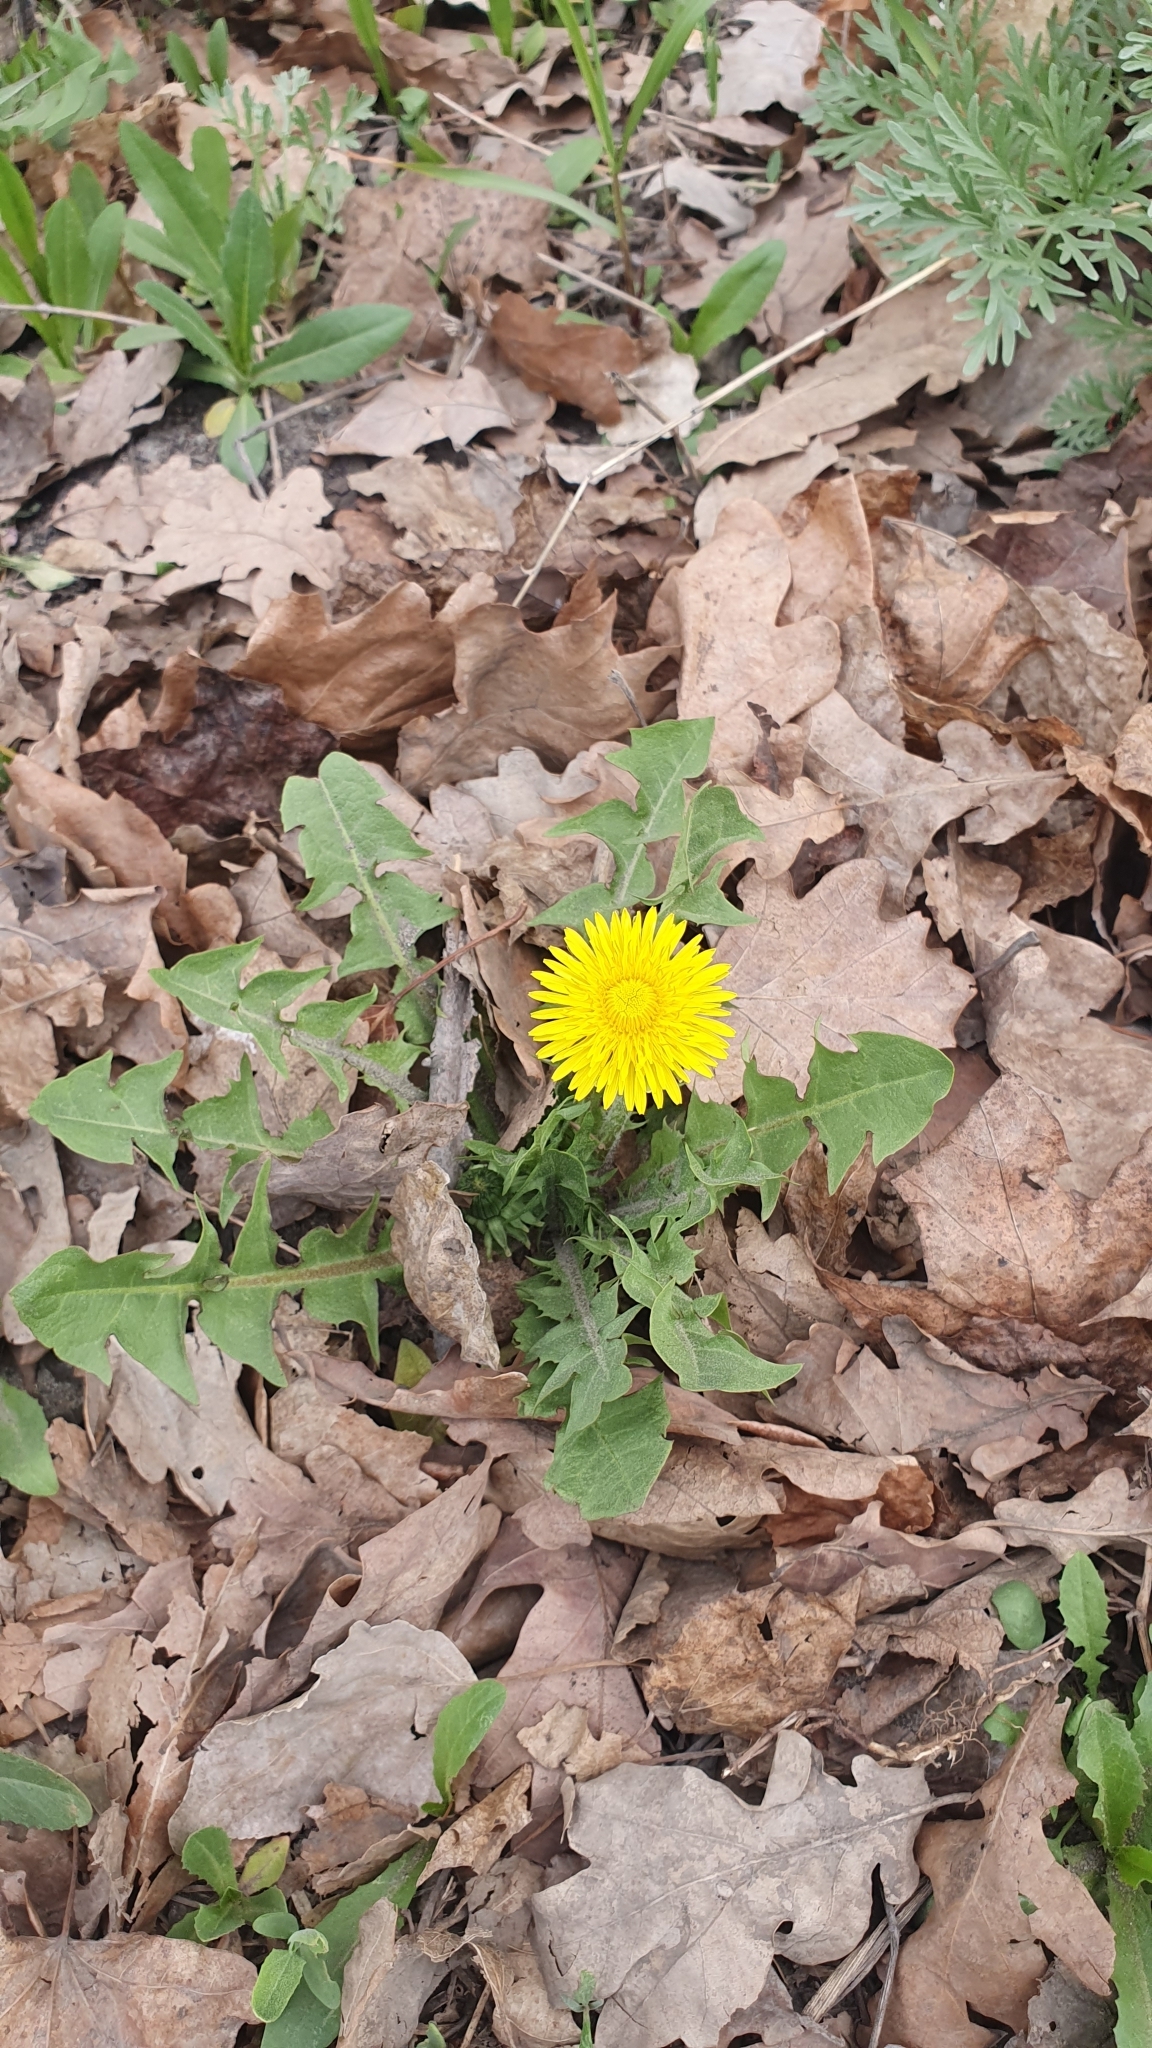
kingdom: Plantae
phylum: Tracheophyta
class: Magnoliopsida
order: Asterales
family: Asteraceae
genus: Taraxacum
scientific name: Taraxacum officinale
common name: Common dandelion
